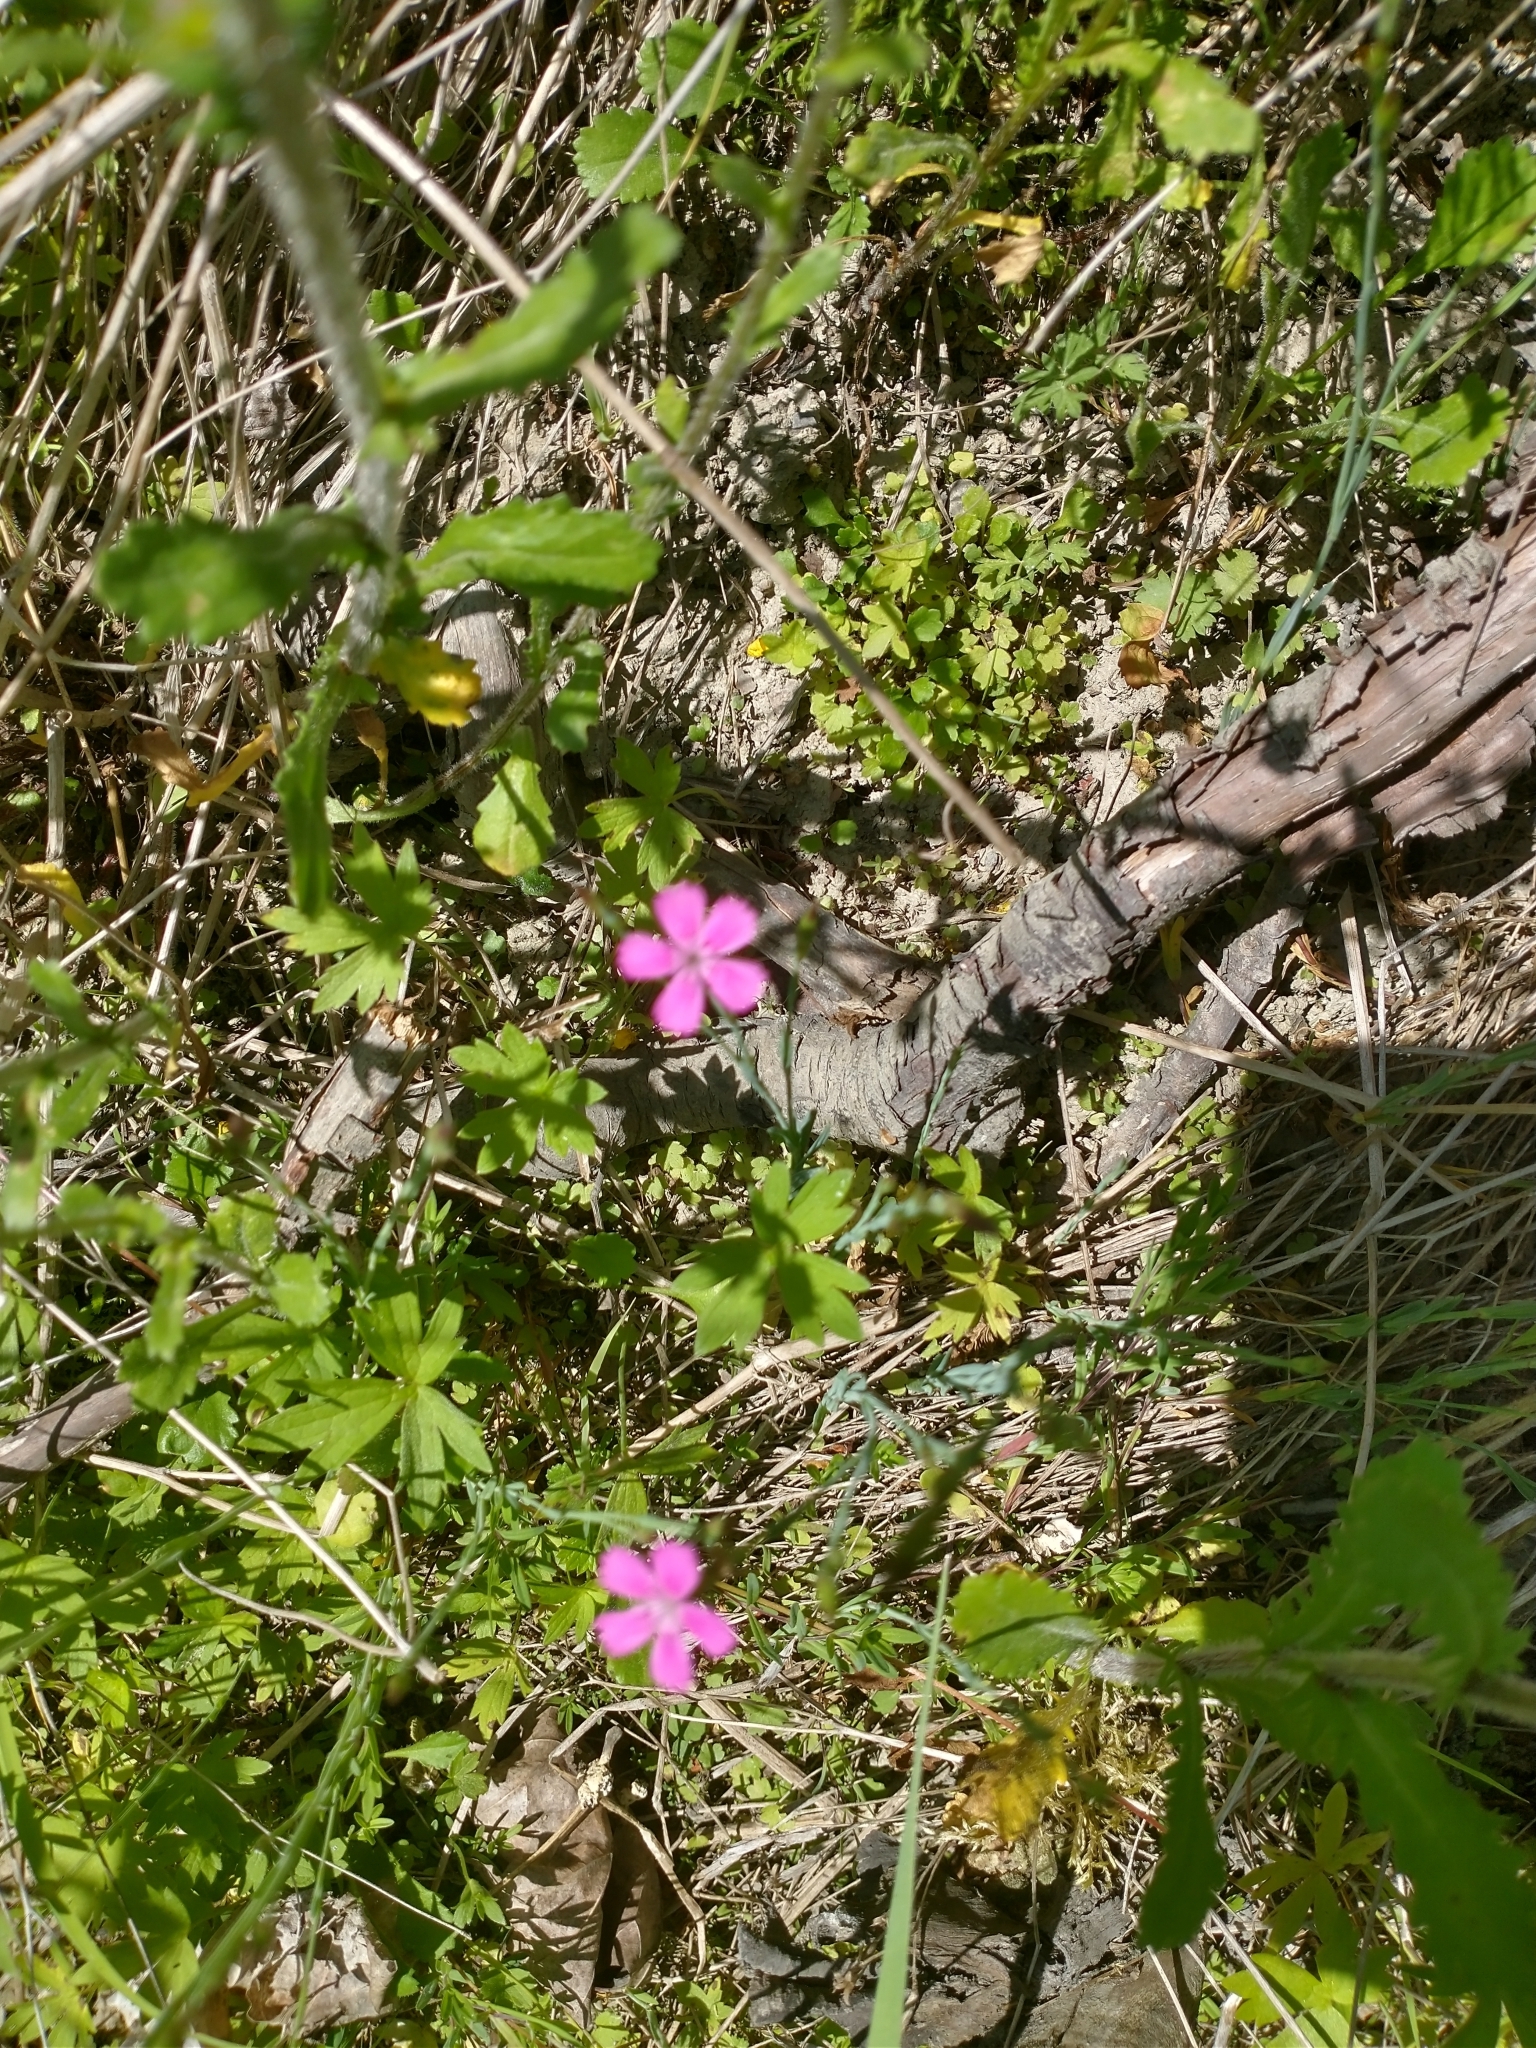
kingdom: Plantae
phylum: Tracheophyta
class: Magnoliopsida
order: Caryophyllales
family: Caryophyllaceae
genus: Dianthus
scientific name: Dianthus deltoides
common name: Maiden pink
